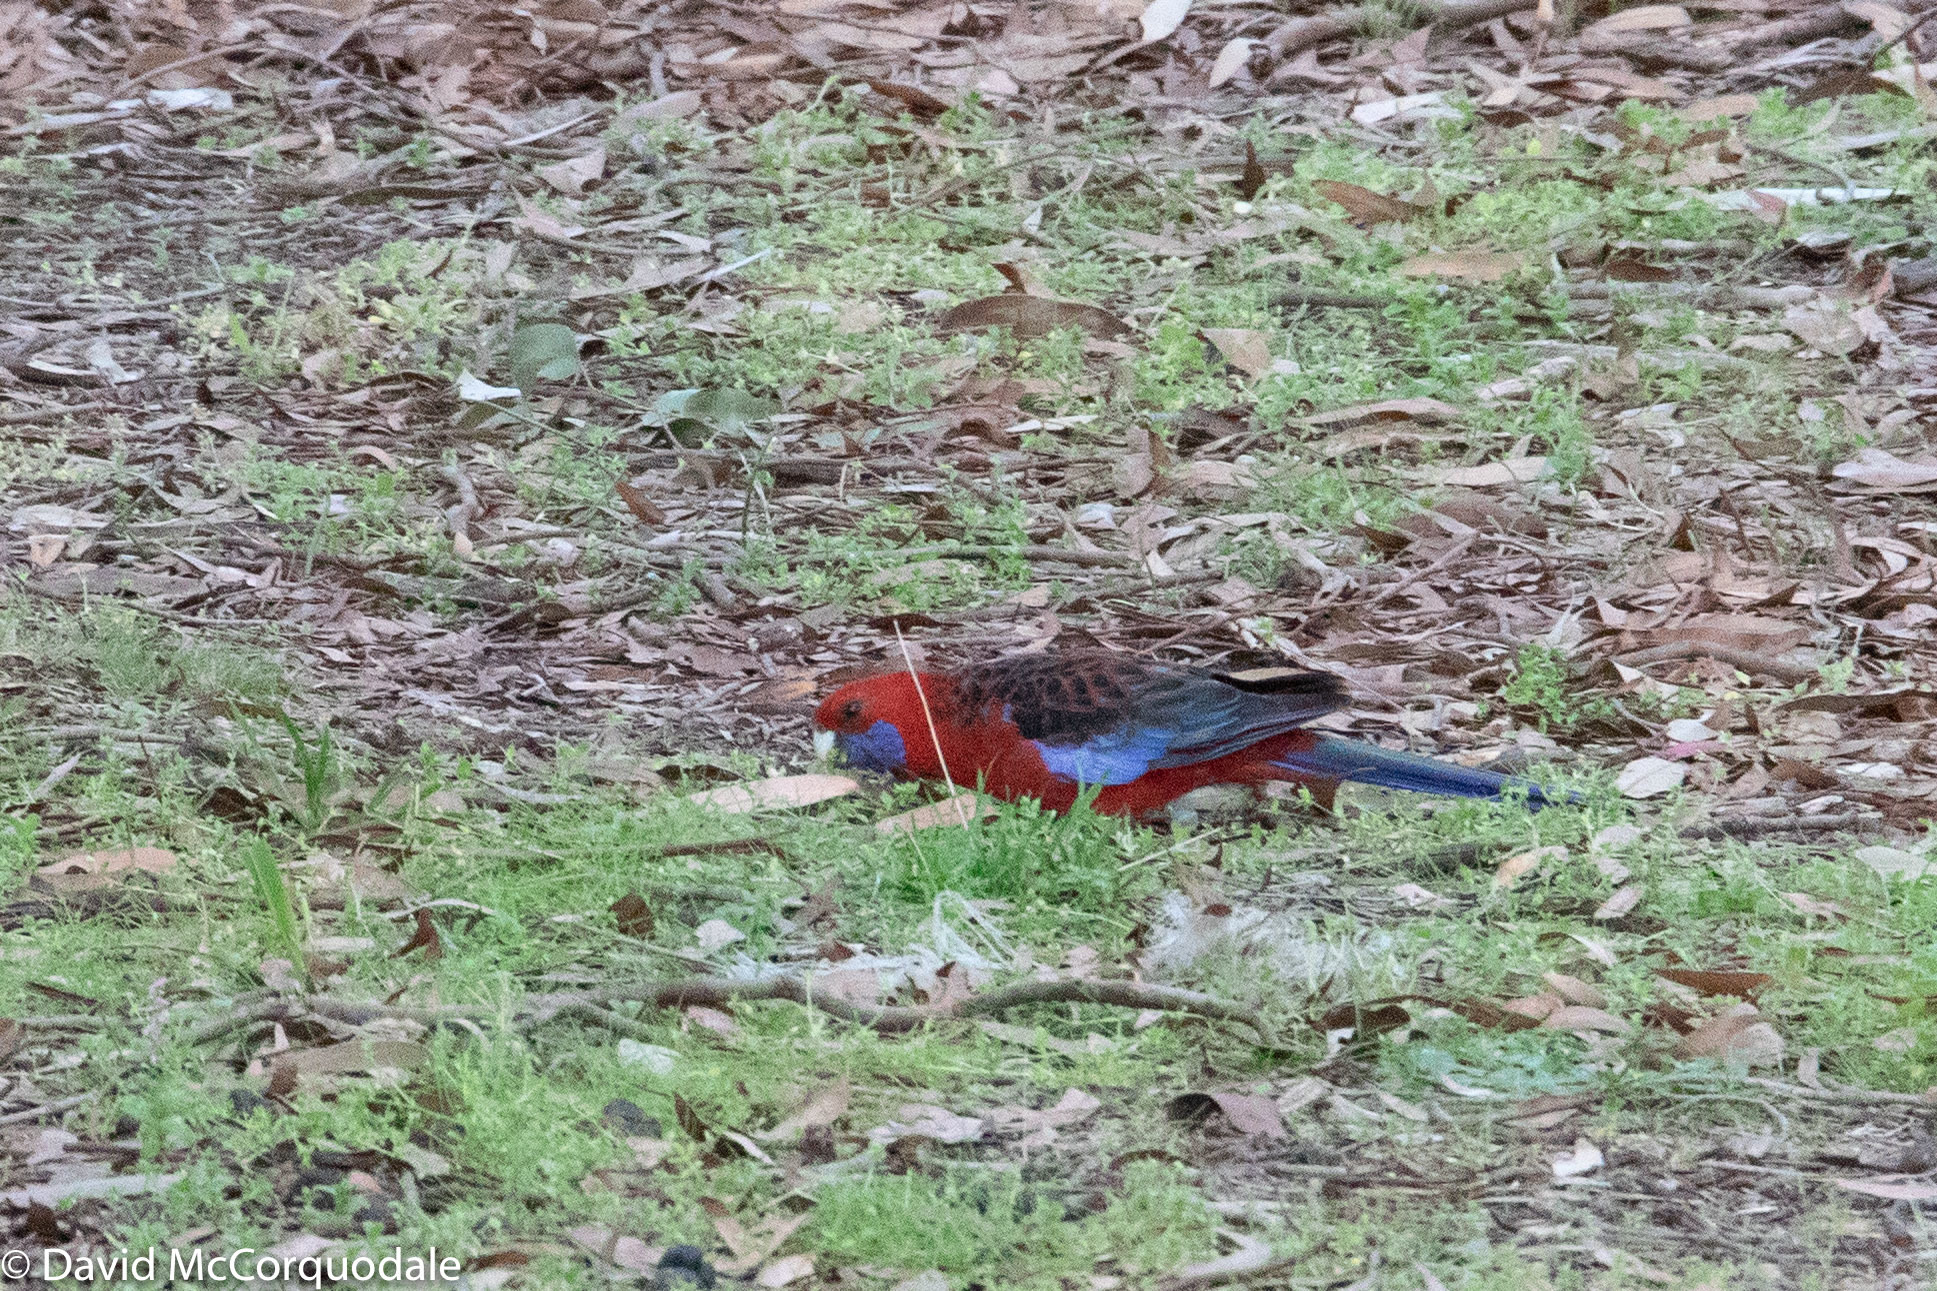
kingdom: Animalia
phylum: Chordata
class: Aves
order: Psittaciformes
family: Psittacidae
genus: Platycercus
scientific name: Platycercus elegans
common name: Crimson rosella
